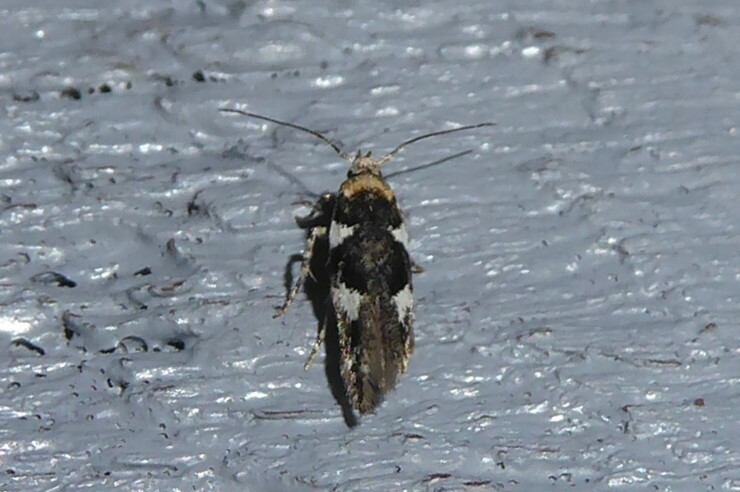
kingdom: Animalia
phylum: Arthropoda
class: Insecta
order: Lepidoptera
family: Cosmopterigidae
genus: Pyroderces
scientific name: Pyroderces deamatella
